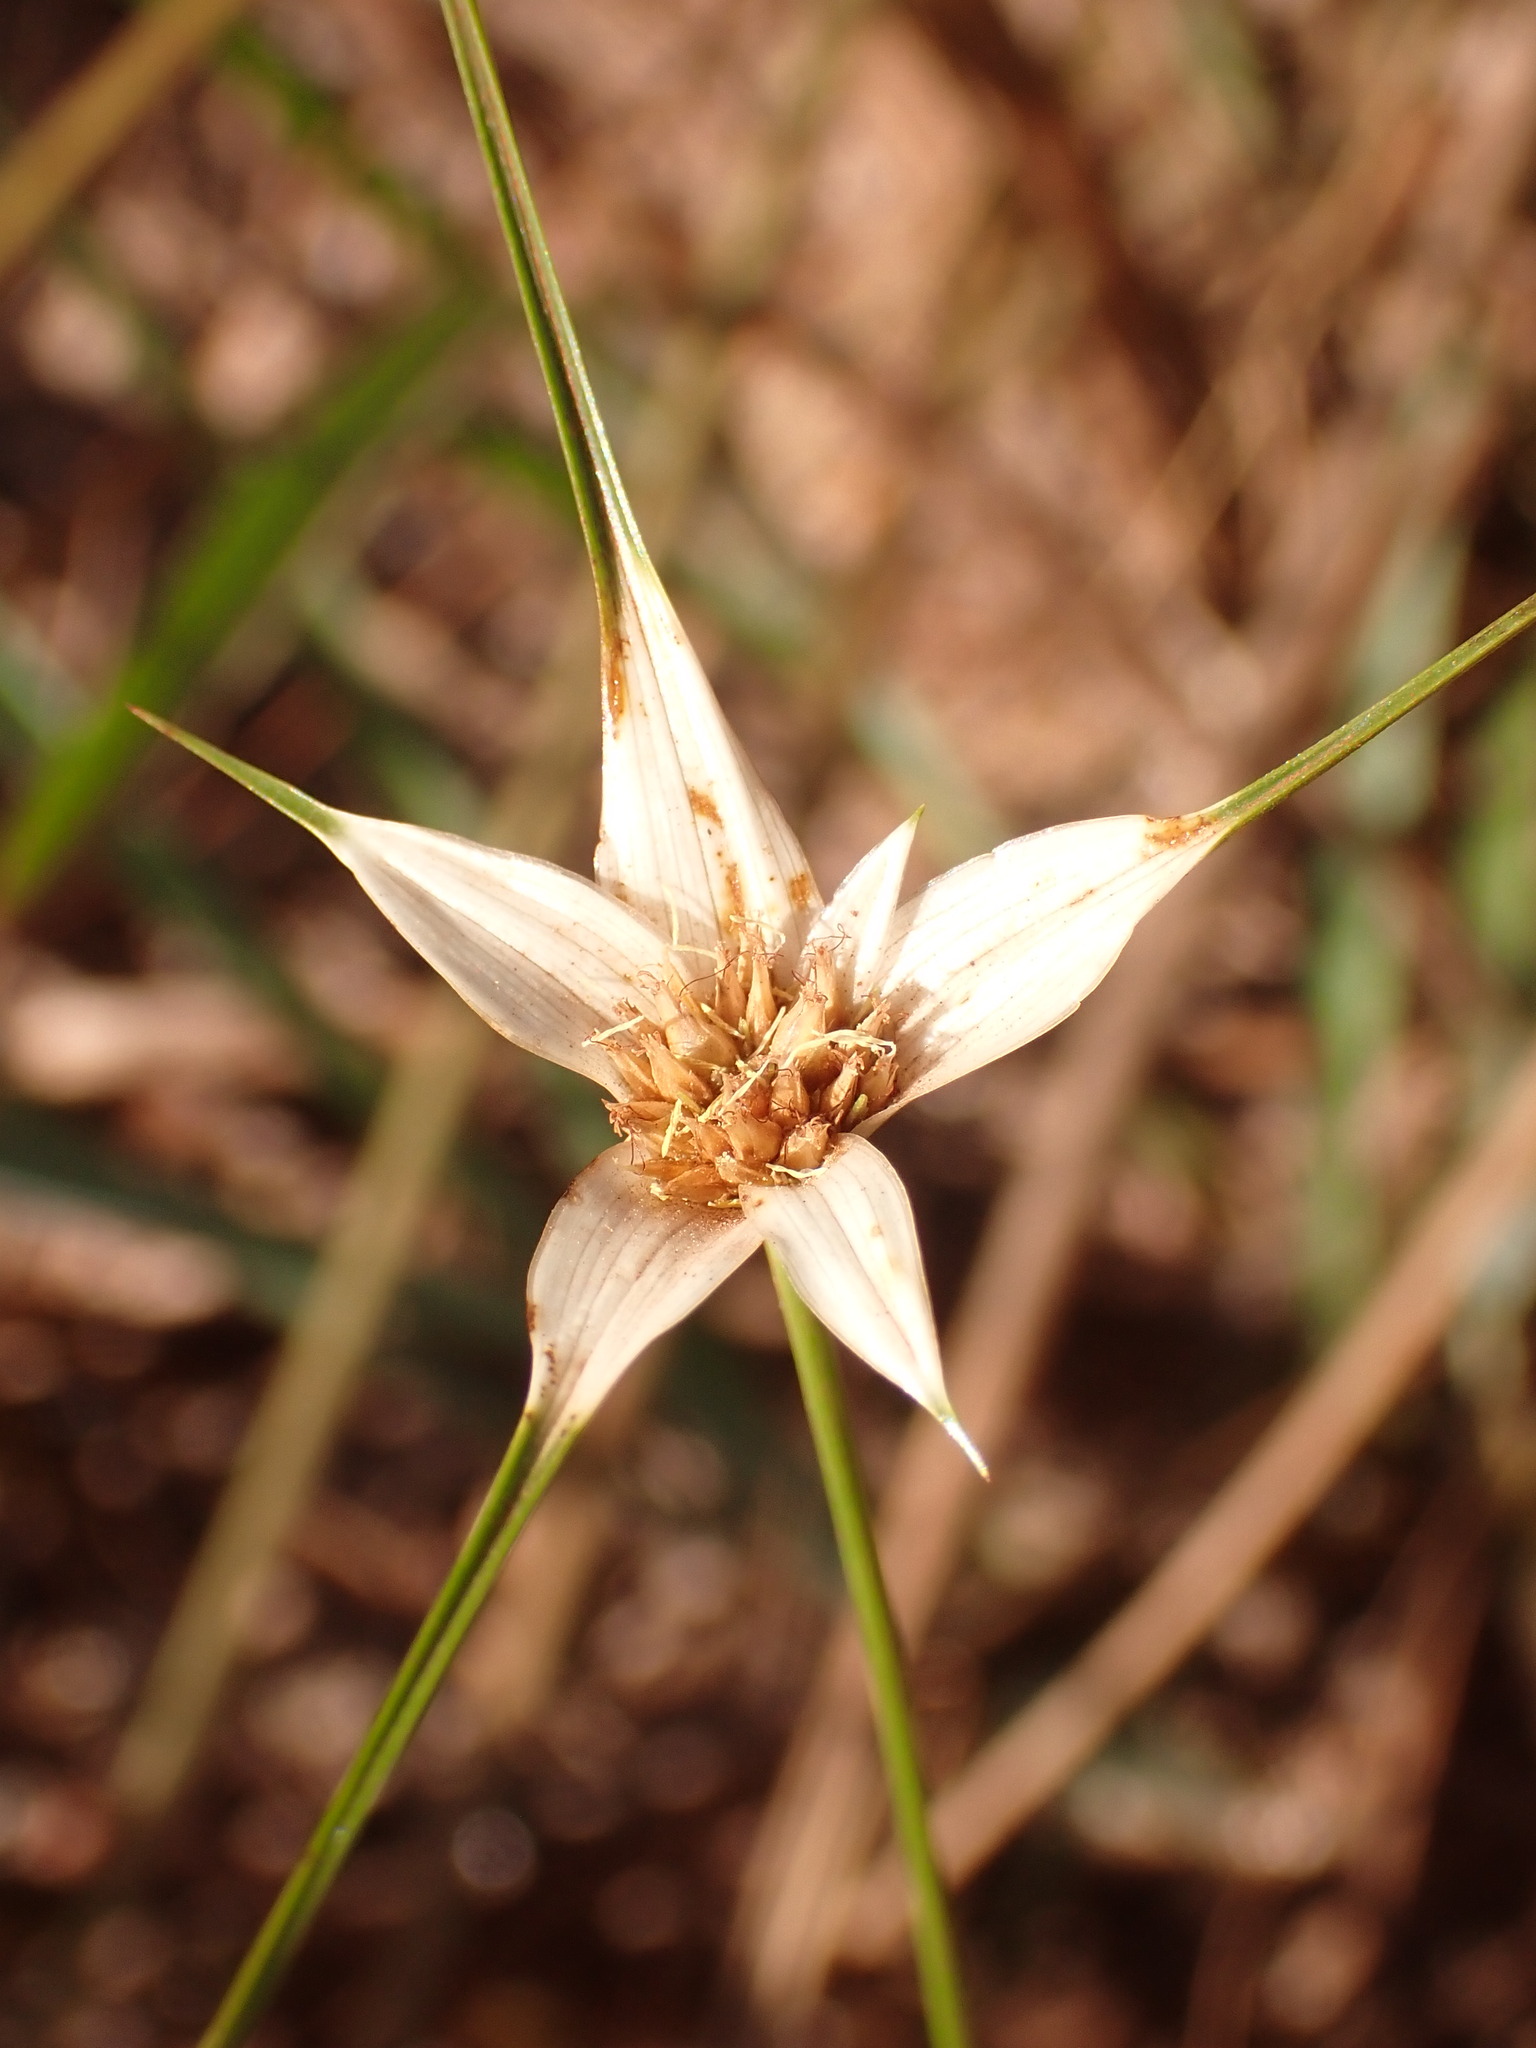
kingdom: Plantae
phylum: Tracheophyta
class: Liliopsida
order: Poales
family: Cyperaceae
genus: Rhynchospora
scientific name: Rhynchospora nervosa
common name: Star sedge
